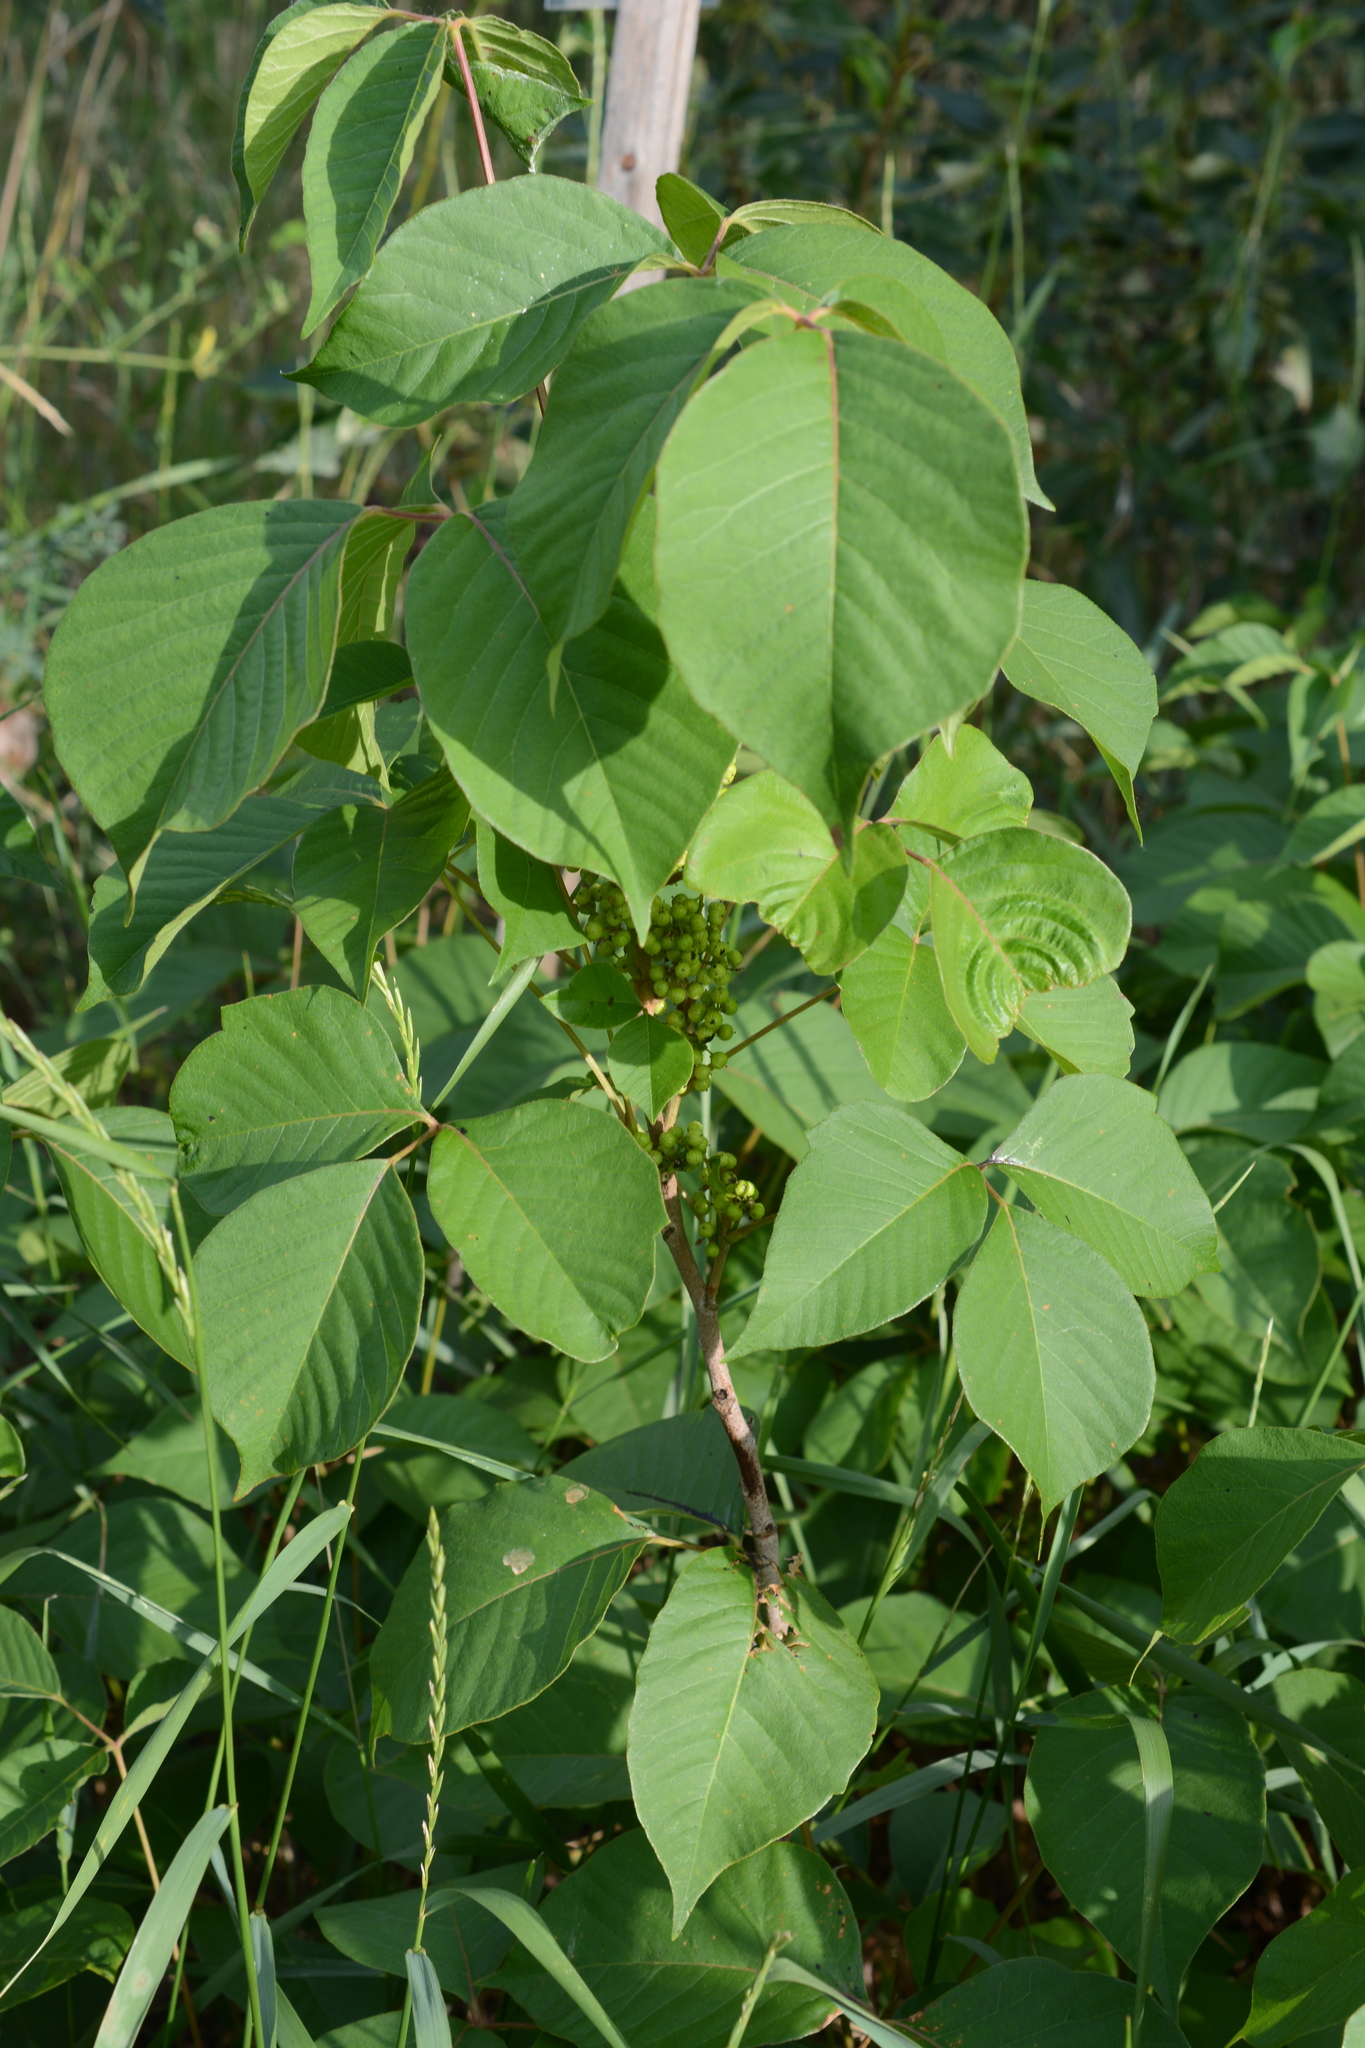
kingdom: Plantae
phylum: Tracheophyta
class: Magnoliopsida
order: Sapindales
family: Anacardiaceae
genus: Toxicodendron
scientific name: Toxicodendron rydbergii
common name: Rydberg's poison-ivy
